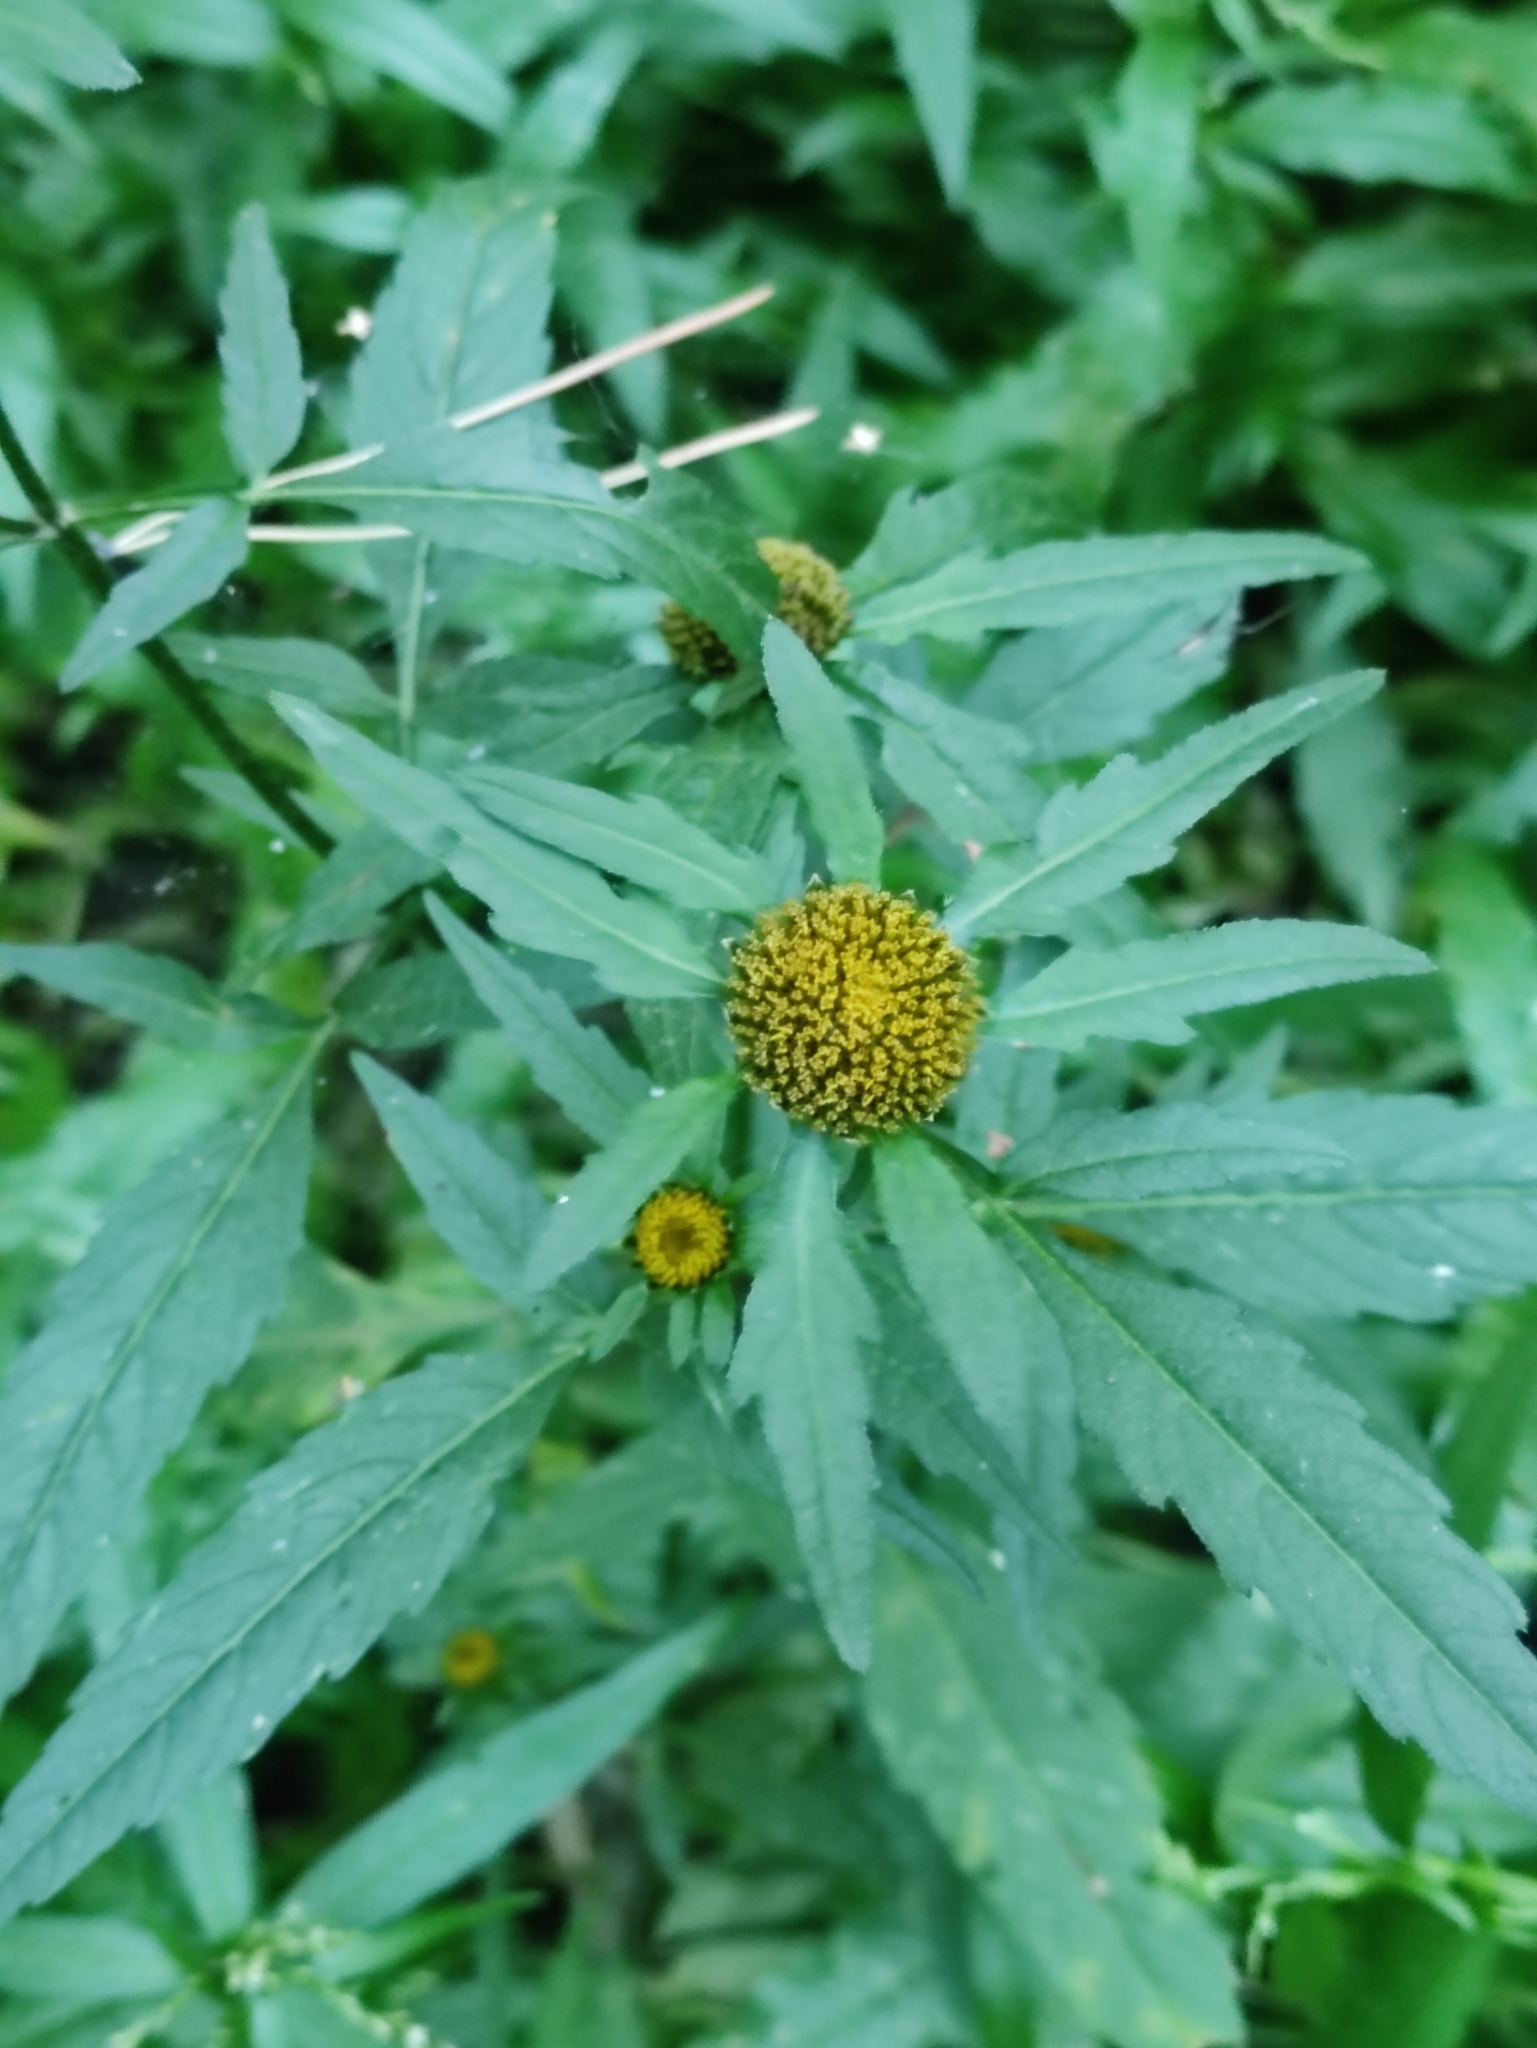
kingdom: Plantae
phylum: Tracheophyta
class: Magnoliopsida
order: Asterales
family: Asteraceae
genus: Bidens
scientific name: Bidens radiata
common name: Radiating bur-marigold
